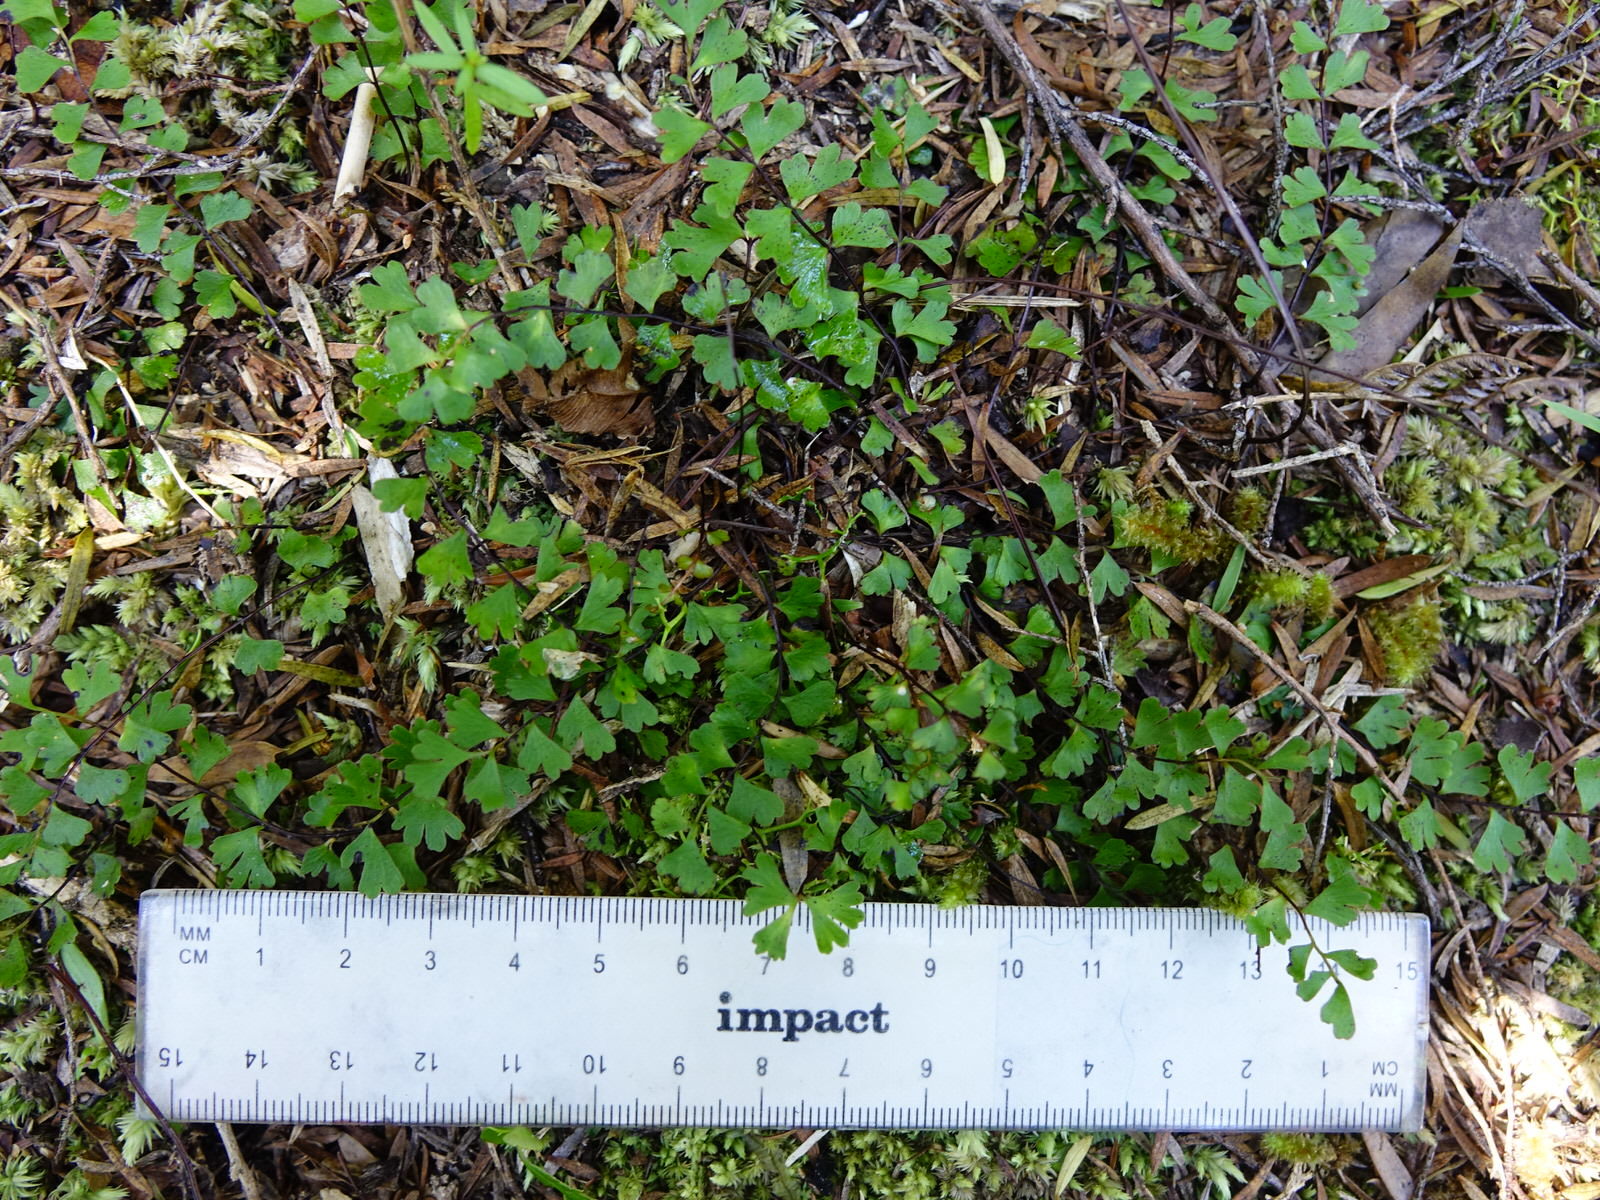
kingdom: Plantae
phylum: Tracheophyta
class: Polypodiopsida
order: Polypodiales
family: Lindsaeaceae
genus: Lindsaea
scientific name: Lindsaea linearis
